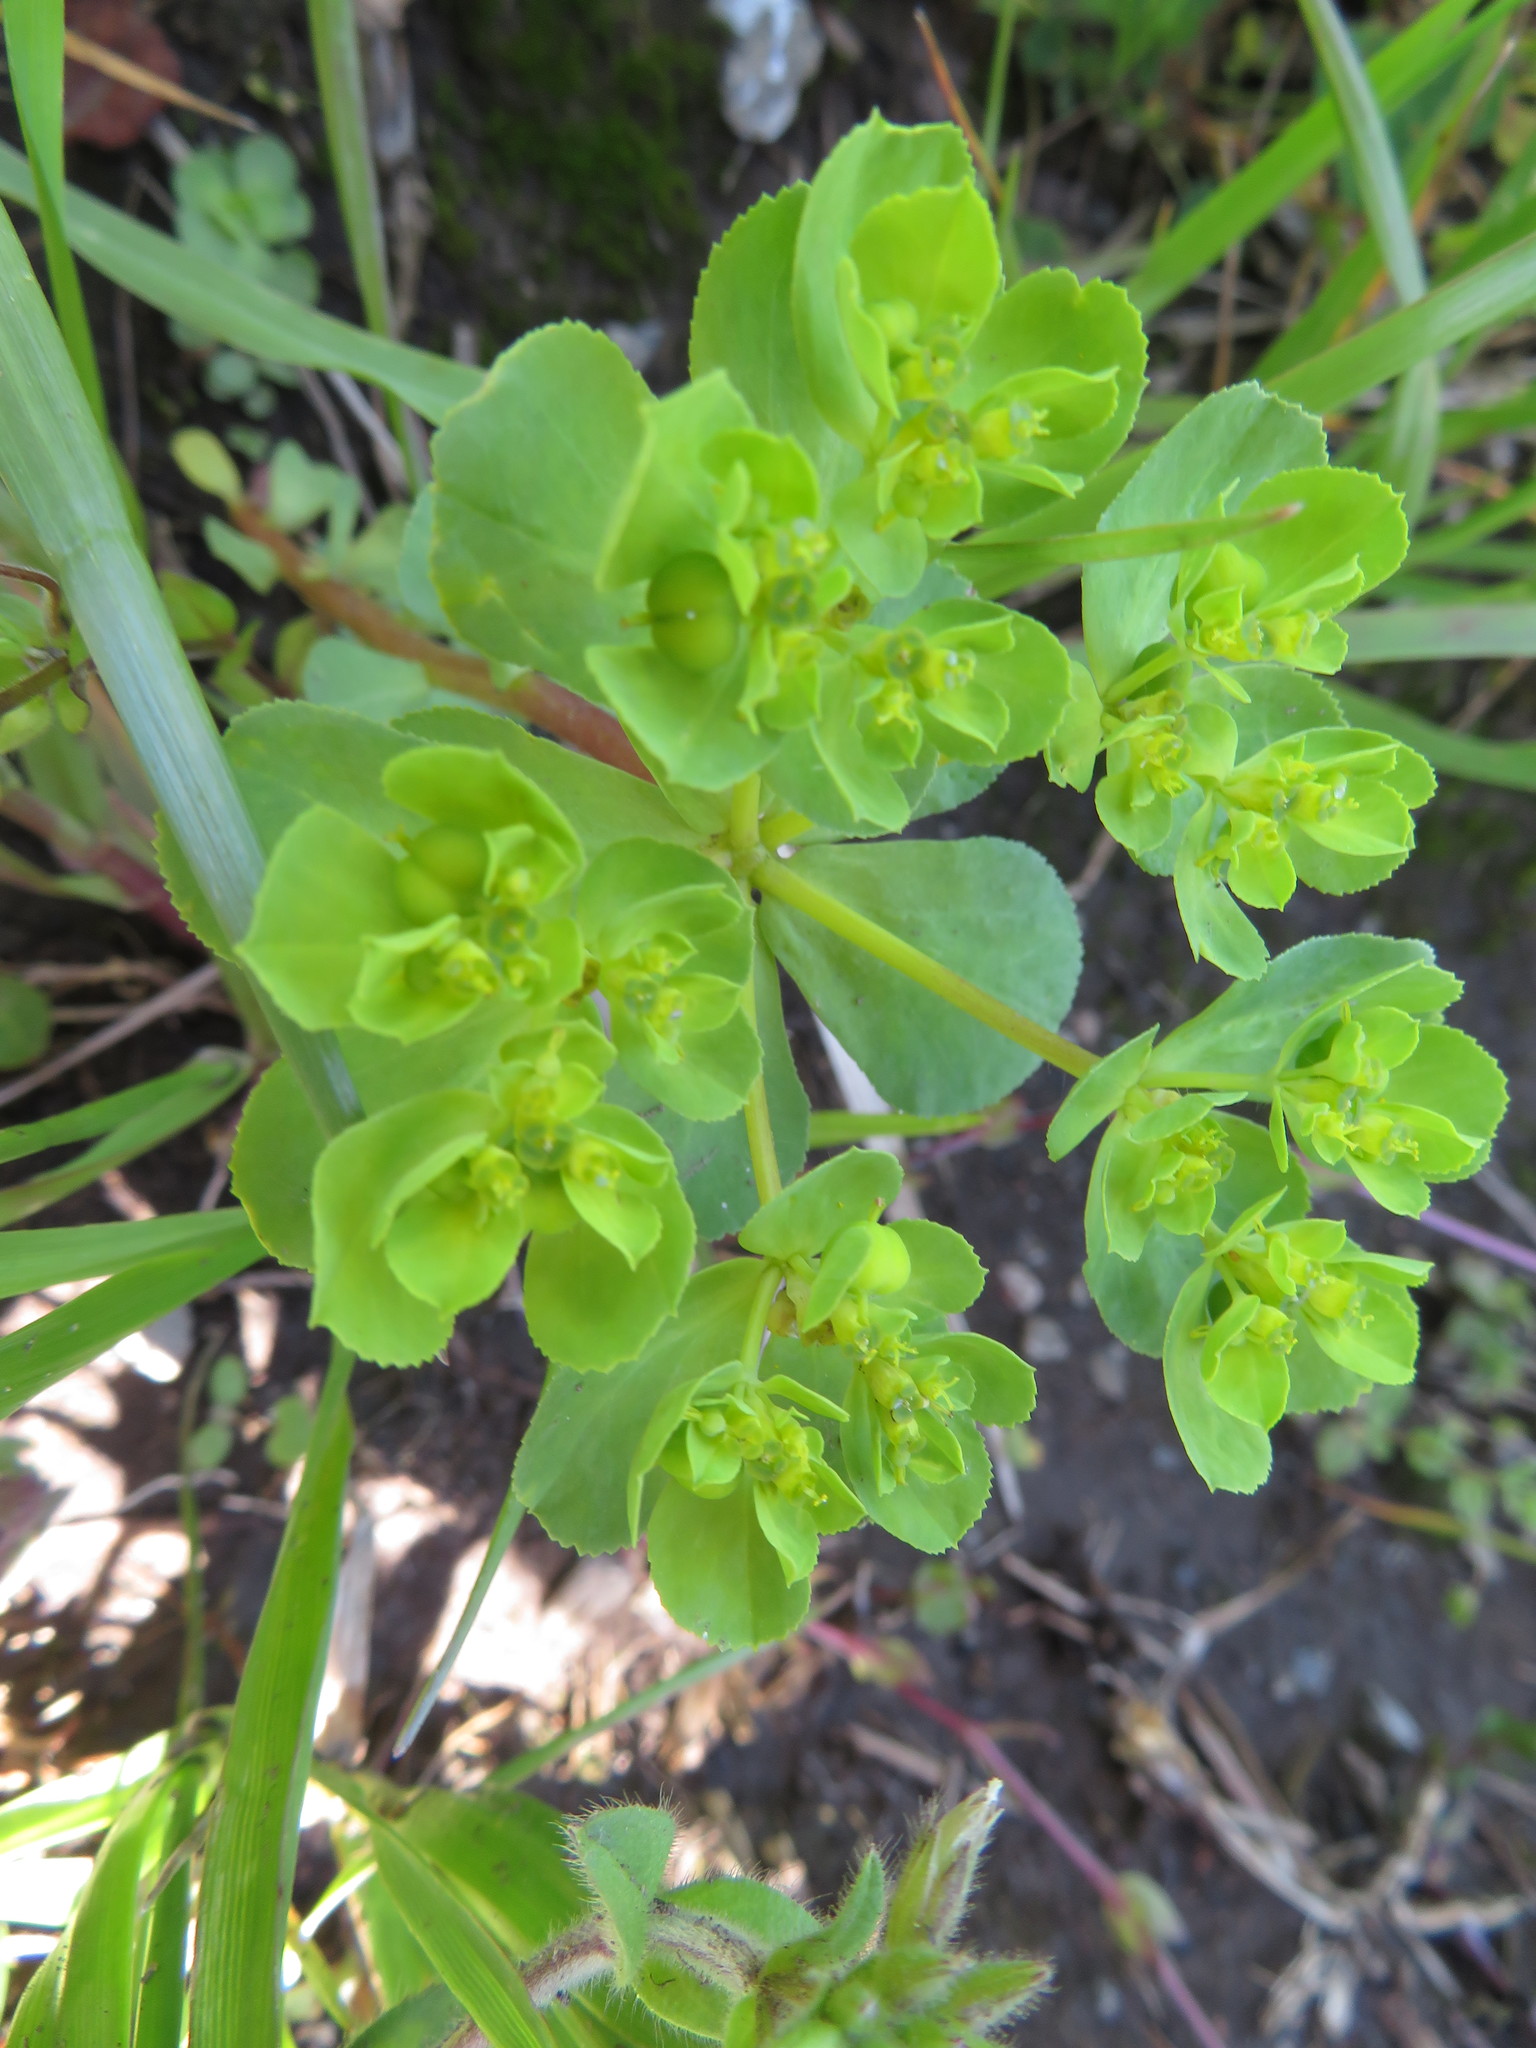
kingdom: Plantae
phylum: Tracheophyta
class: Magnoliopsida
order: Malpighiales
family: Euphorbiaceae
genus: Euphorbia
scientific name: Euphorbia helioscopia
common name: Sun spurge
